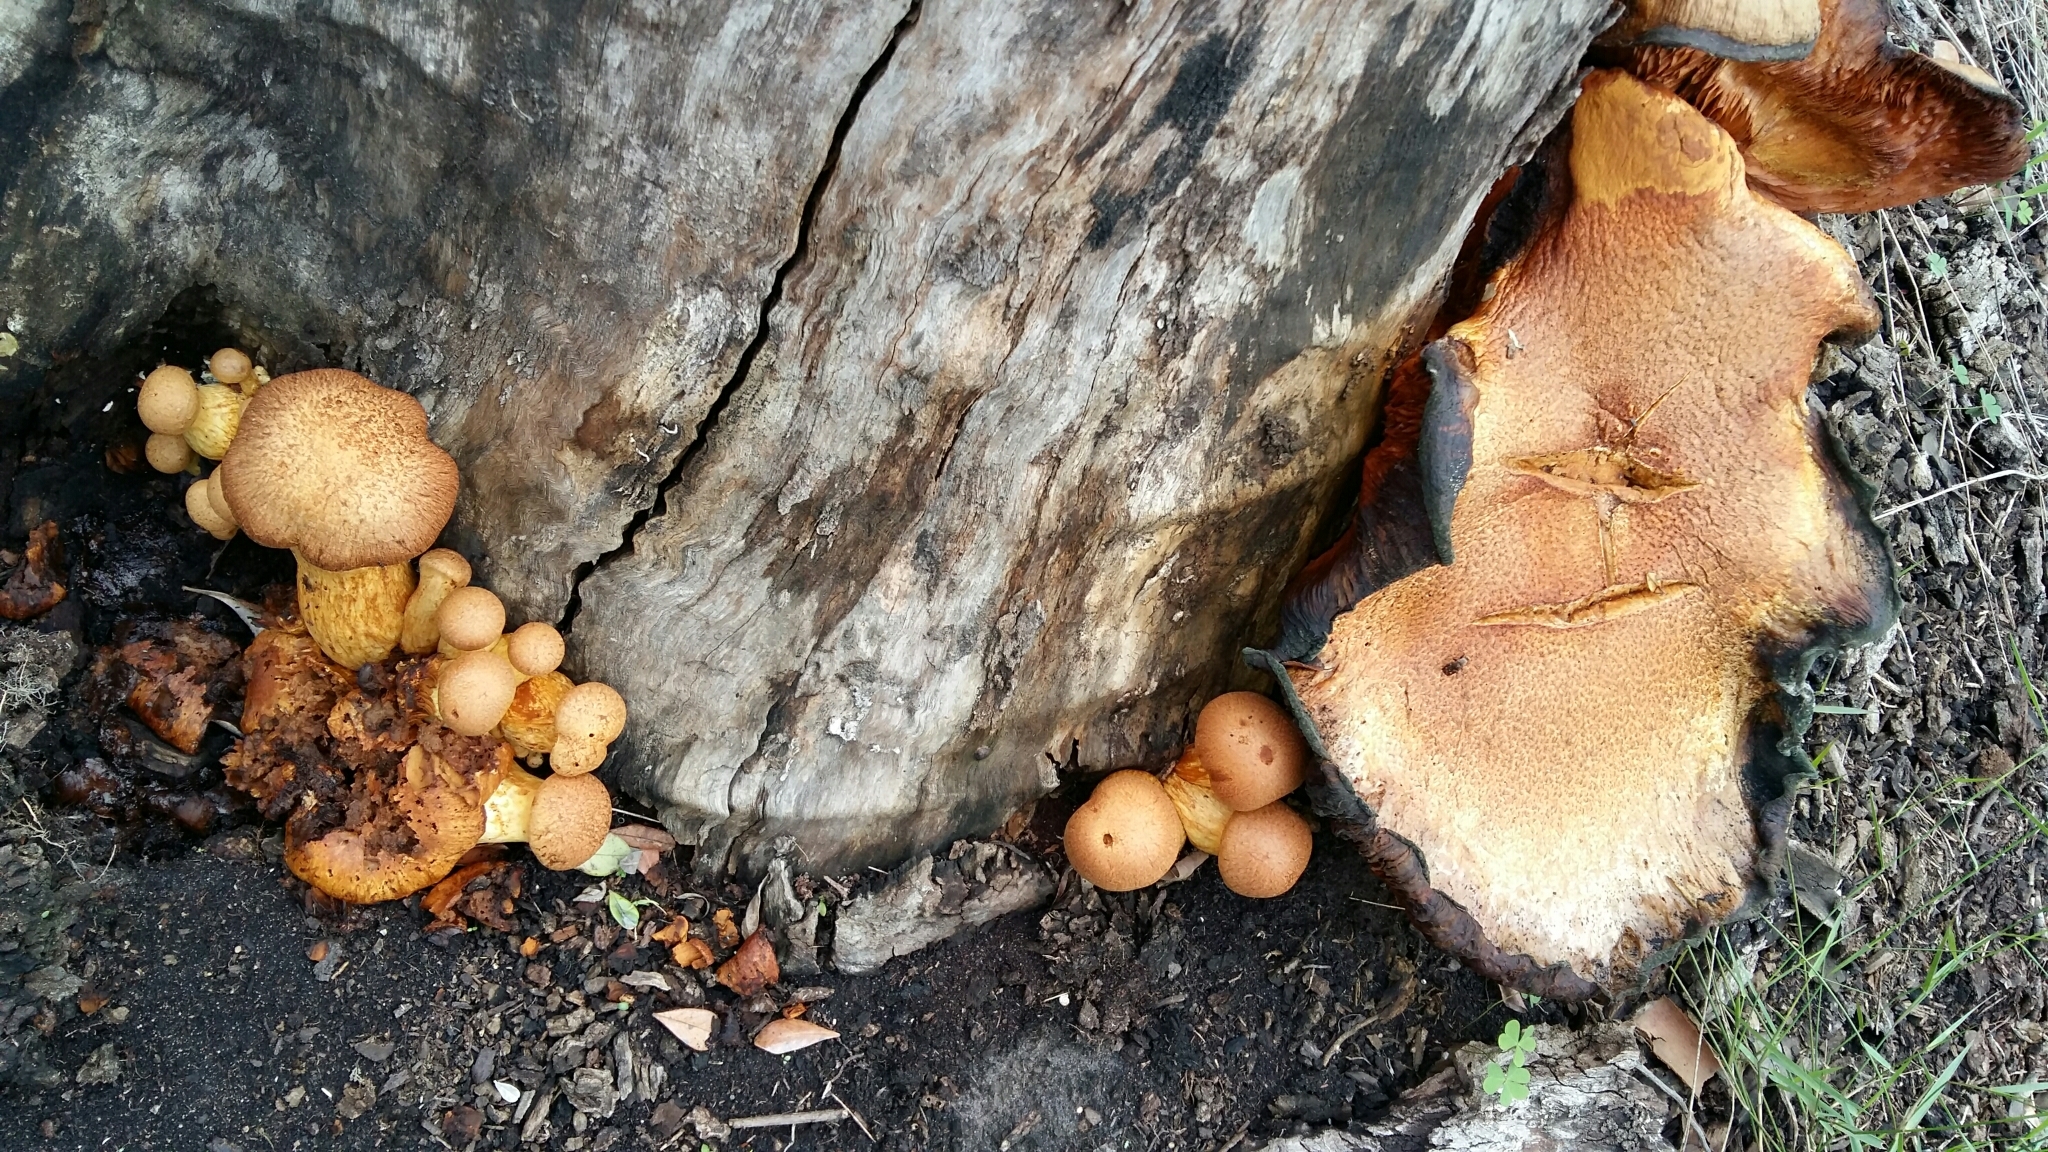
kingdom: Fungi
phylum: Basidiomycota
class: Agaricomycetes
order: Agaricales
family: Hymenogastraceae
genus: Gymnopilus
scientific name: Gymnopilus junonius
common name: Spectacular rustgill
